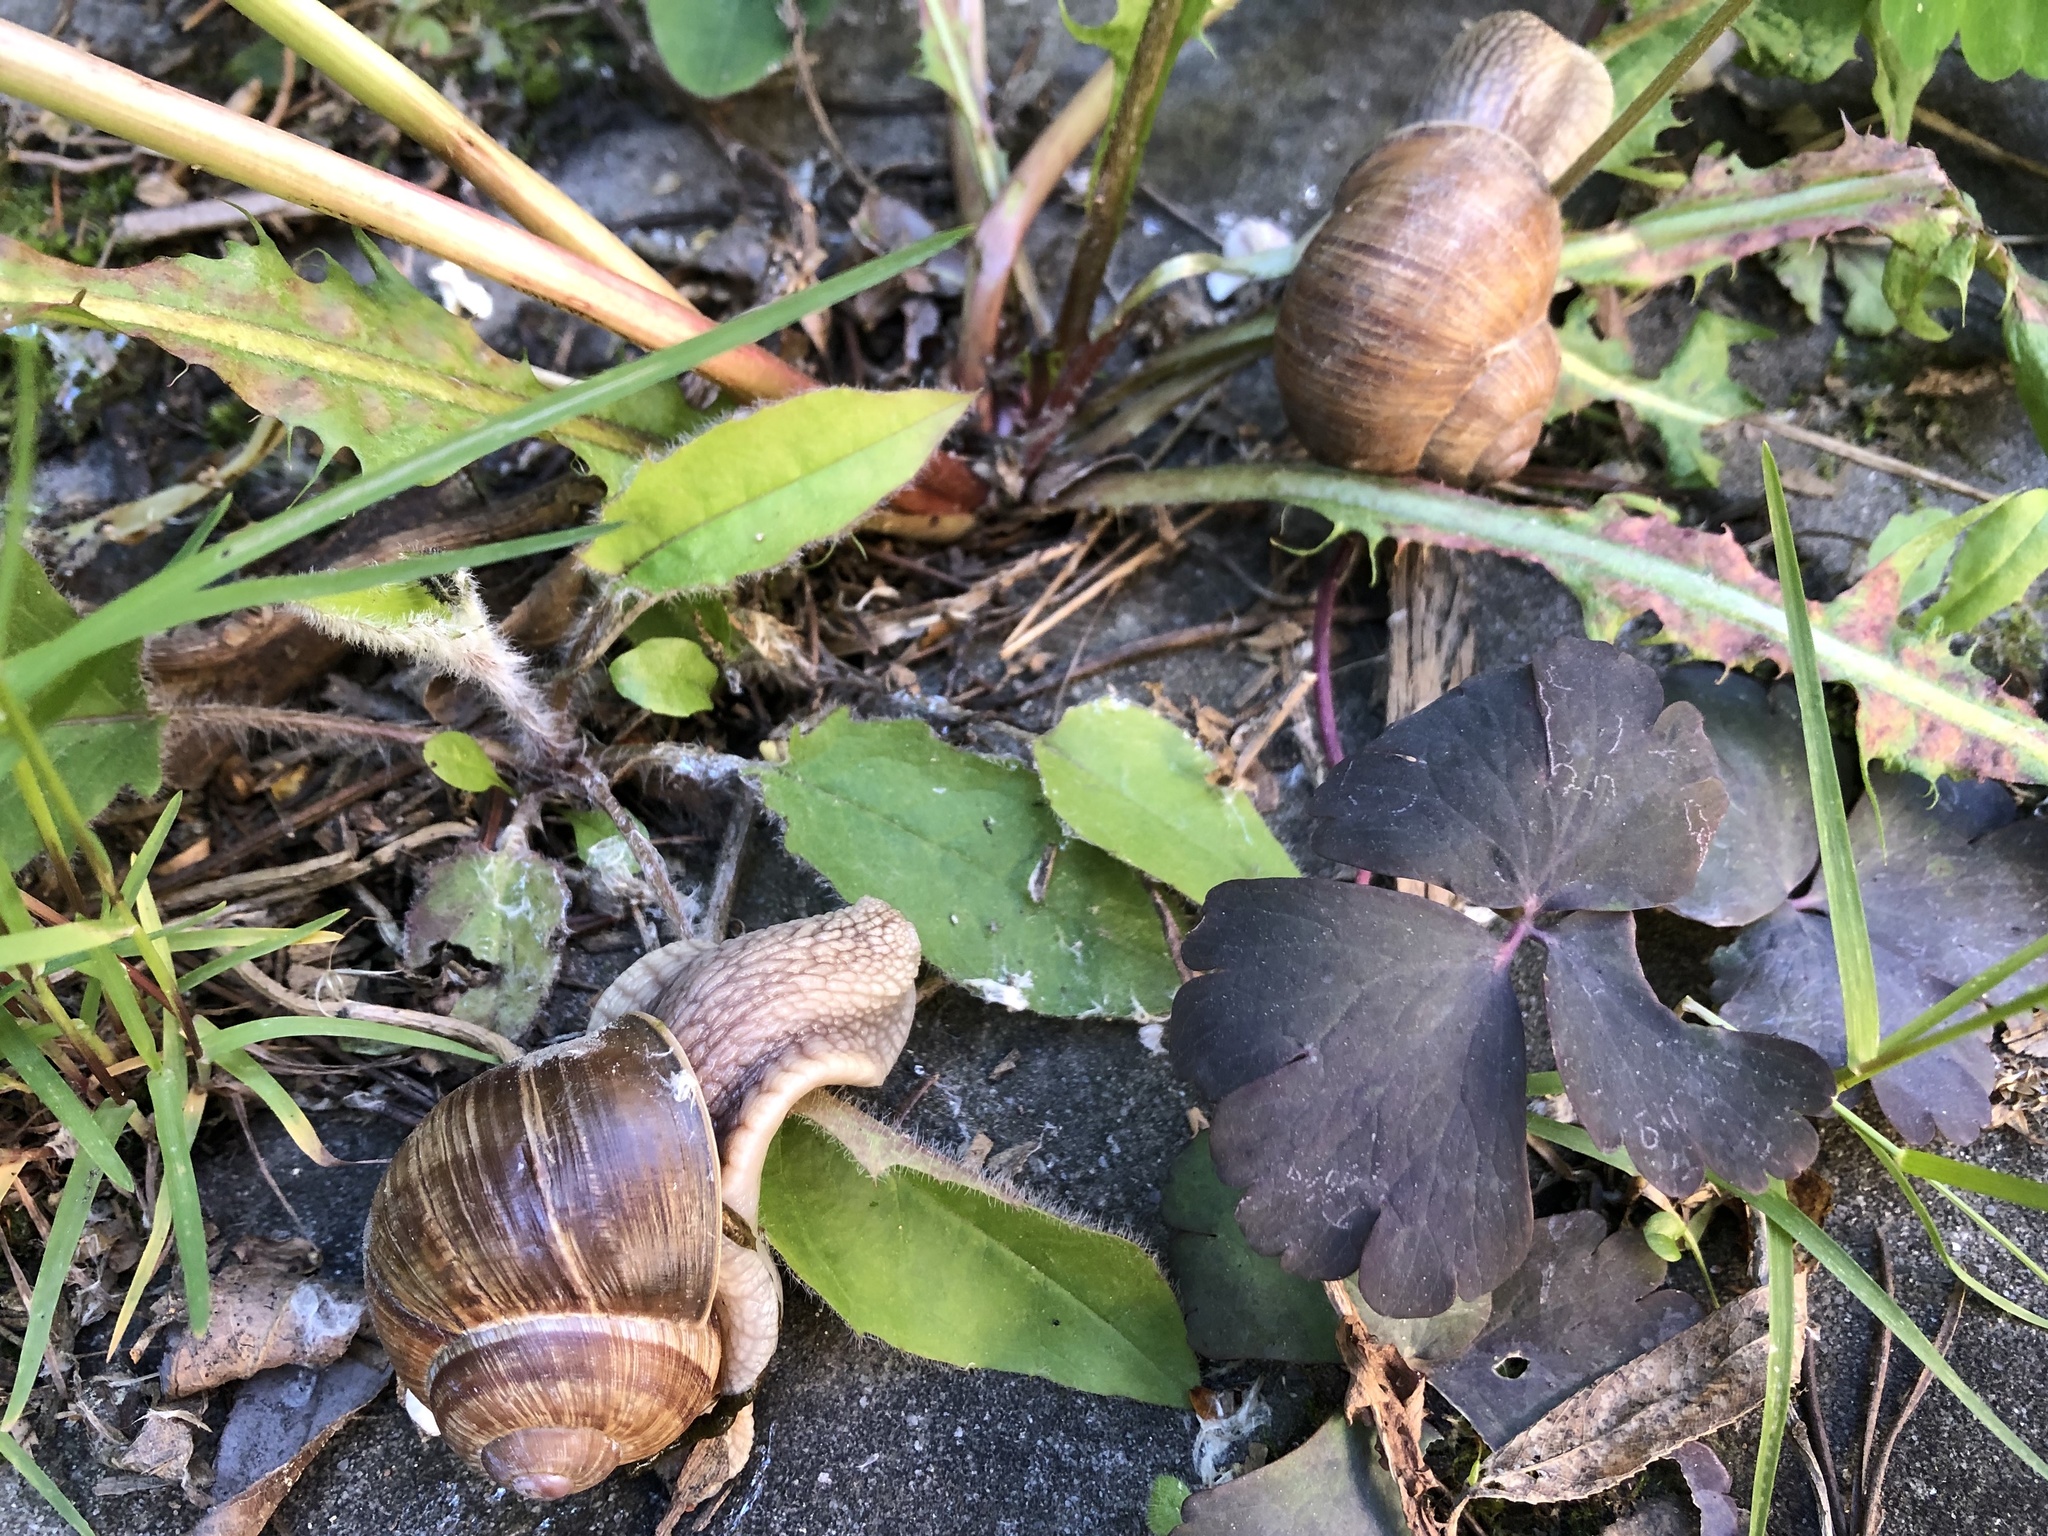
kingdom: Animalia
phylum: Mollusca
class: Gastropoda
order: Stylommatophora
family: Helicidae
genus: Helix
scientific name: Helix pomatia
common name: Roman snail
